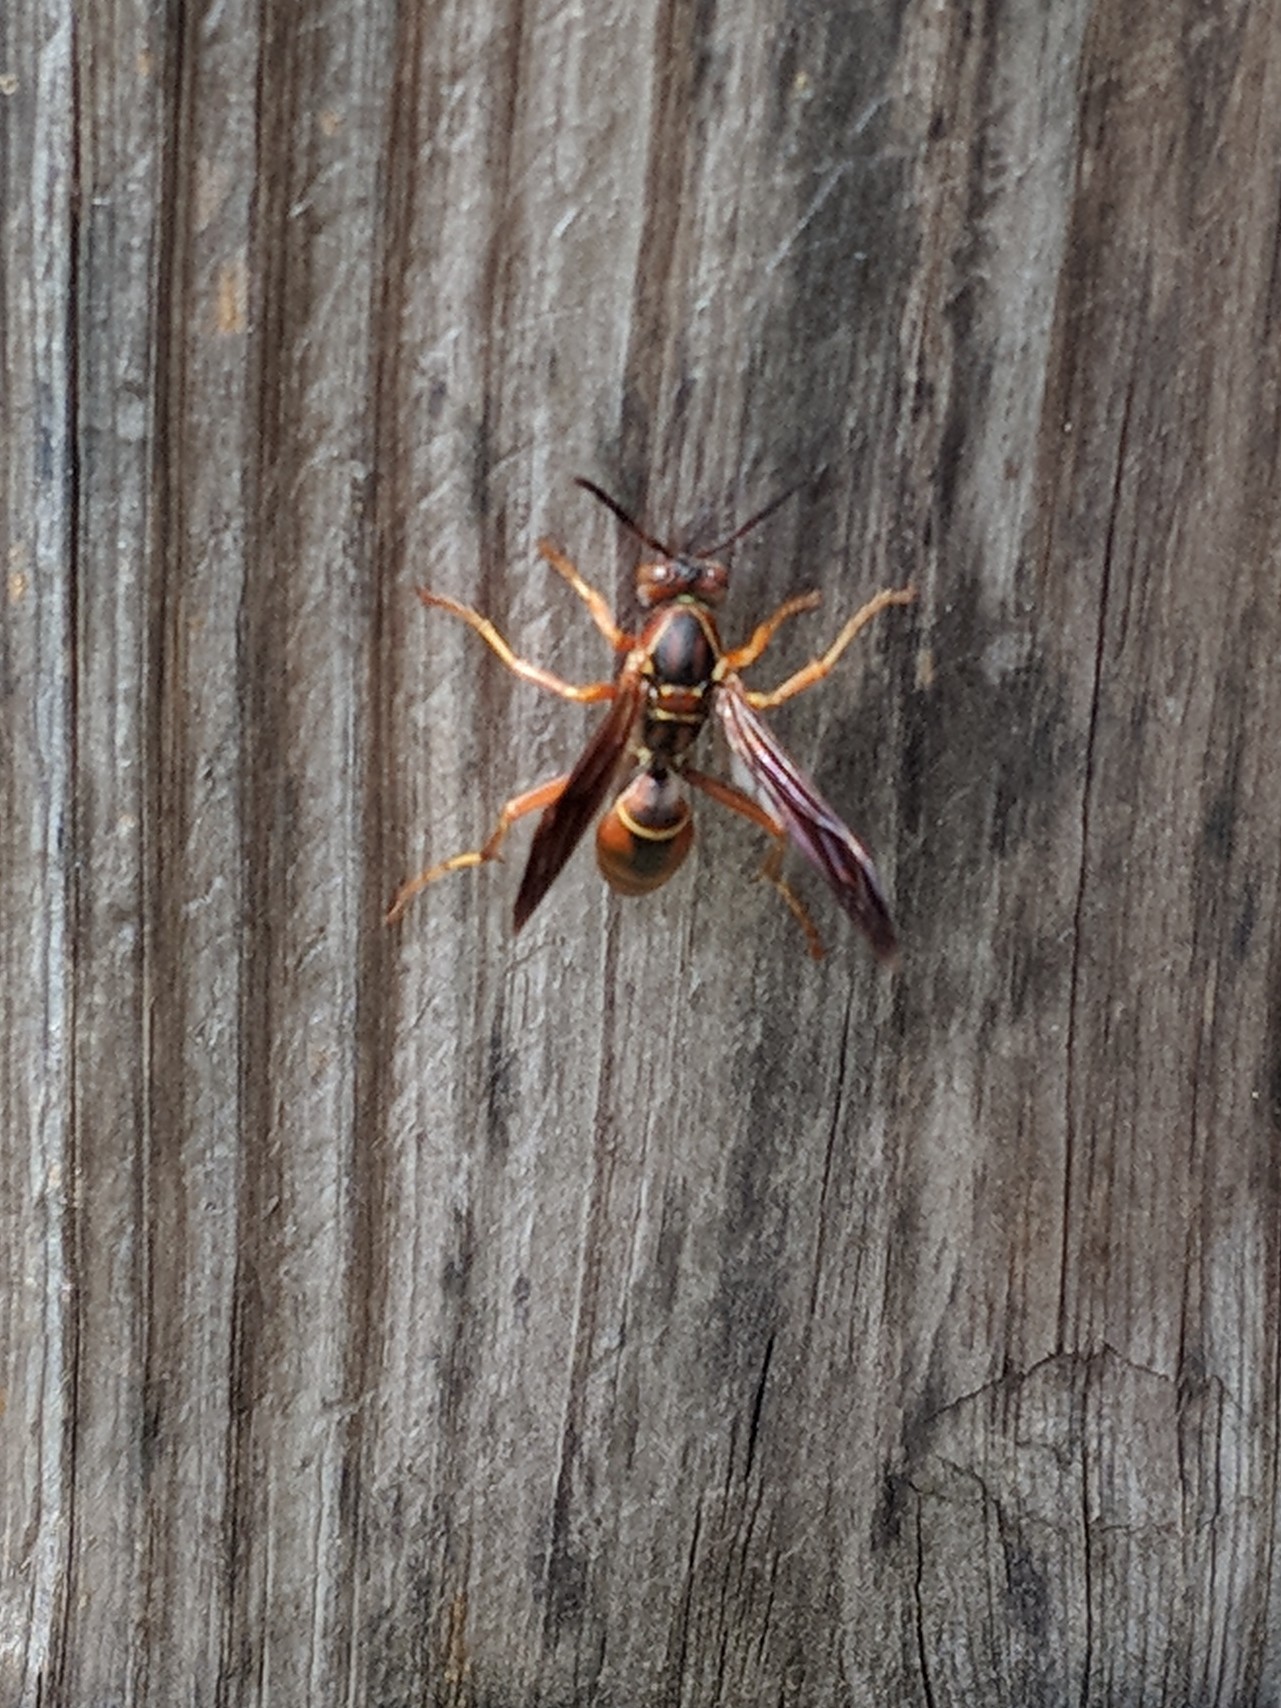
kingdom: Animalia
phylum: Arthropoda
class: Insecta
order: Hymenoptera
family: Eumenidae
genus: Polistes
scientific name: Polistes fuscatus
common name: Dark paper wasp
